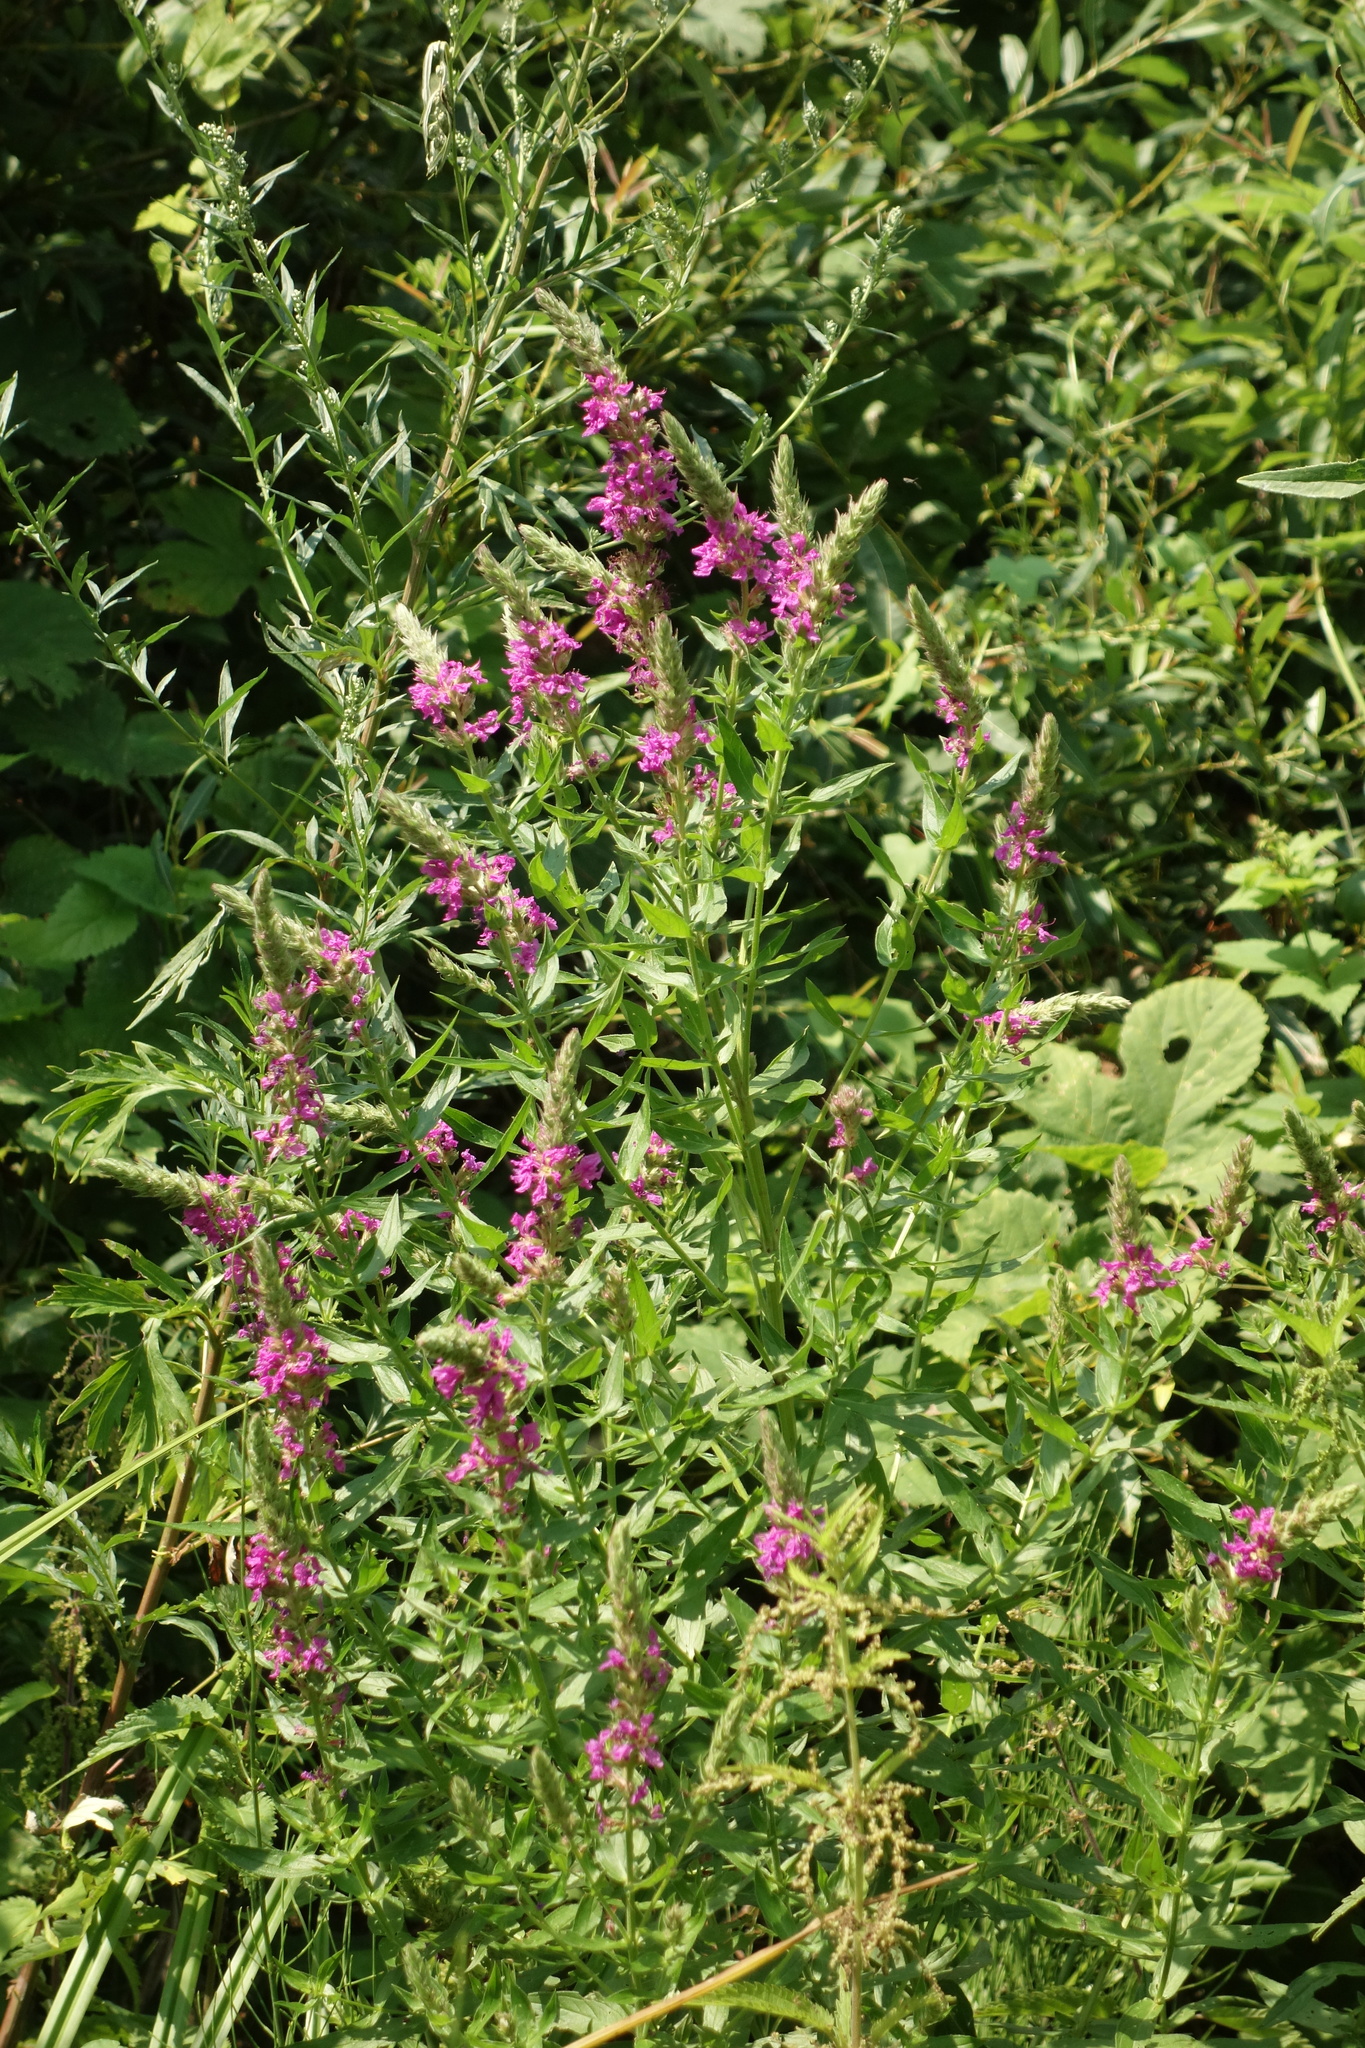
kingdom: Plantae
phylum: Tracheophyta
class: Magnoliopsida
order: Myrtales
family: Lythraceae
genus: Lythrum
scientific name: Lythrum salicaria
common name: Purple loosestrife
